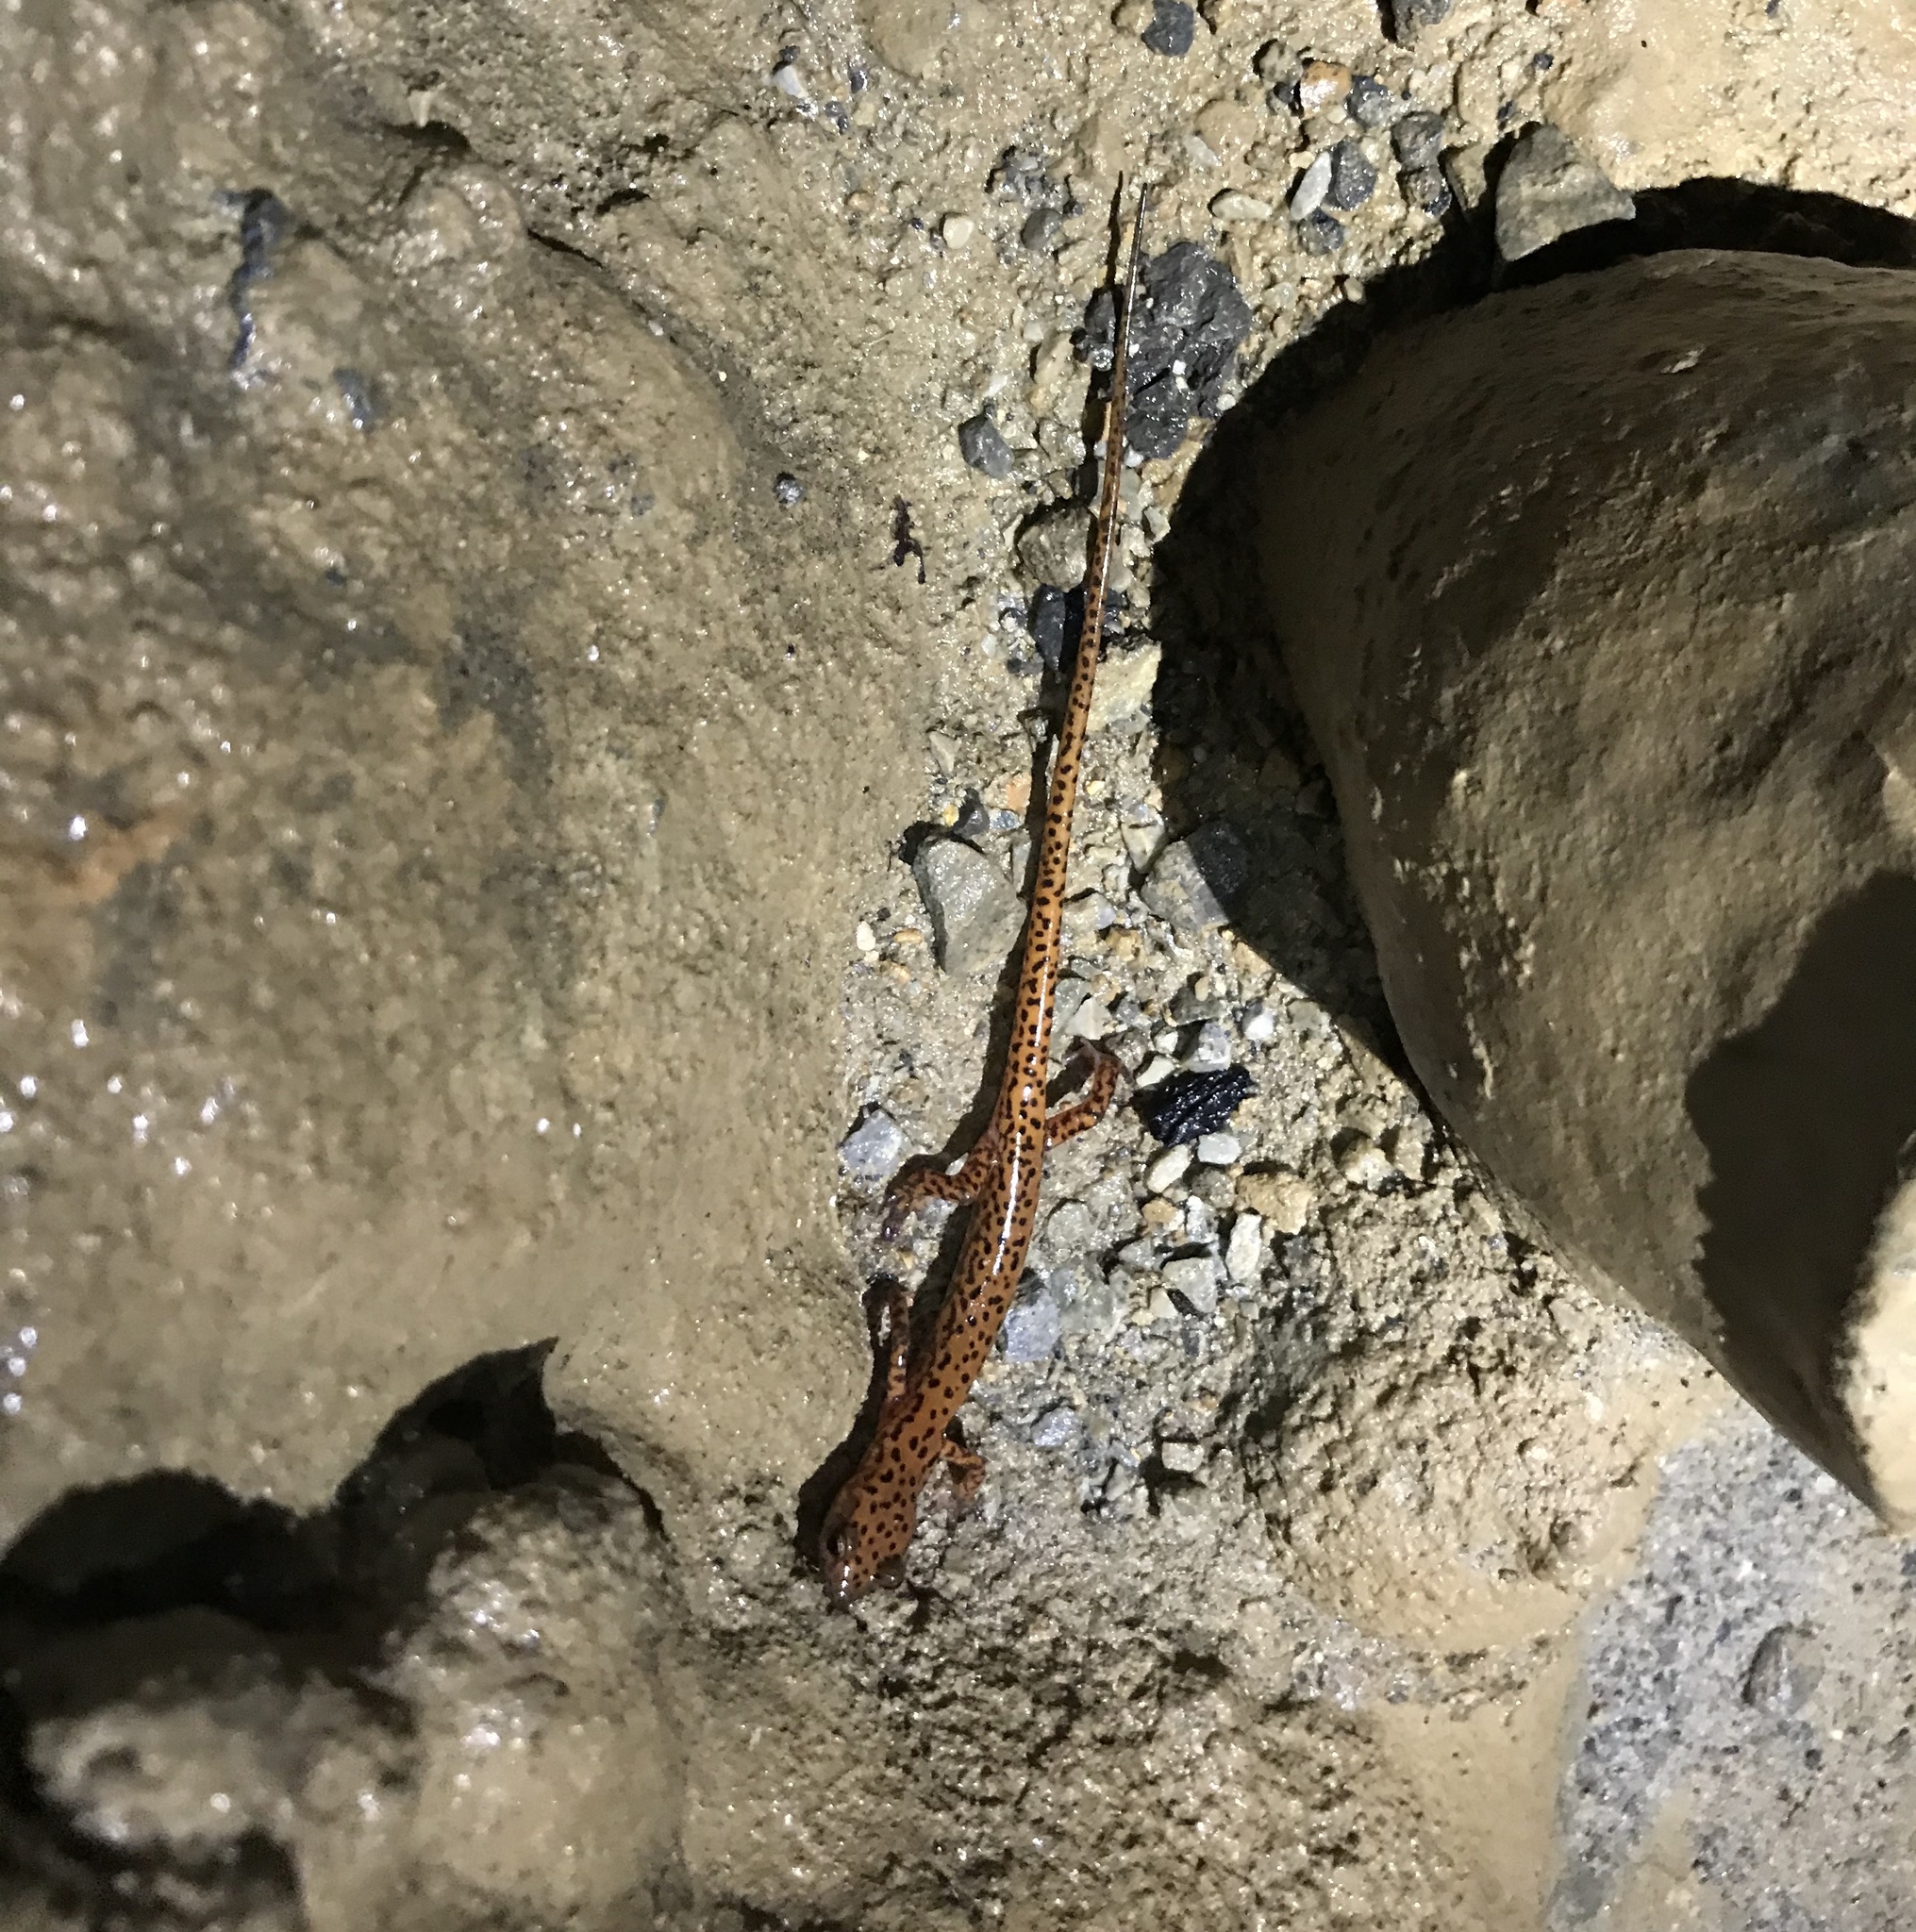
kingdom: Animalia
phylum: Chordata
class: Amphibia
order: Caudata
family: Plethodontidae
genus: Eurycea
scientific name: Eurycea lucifuga
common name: Cave salamander
